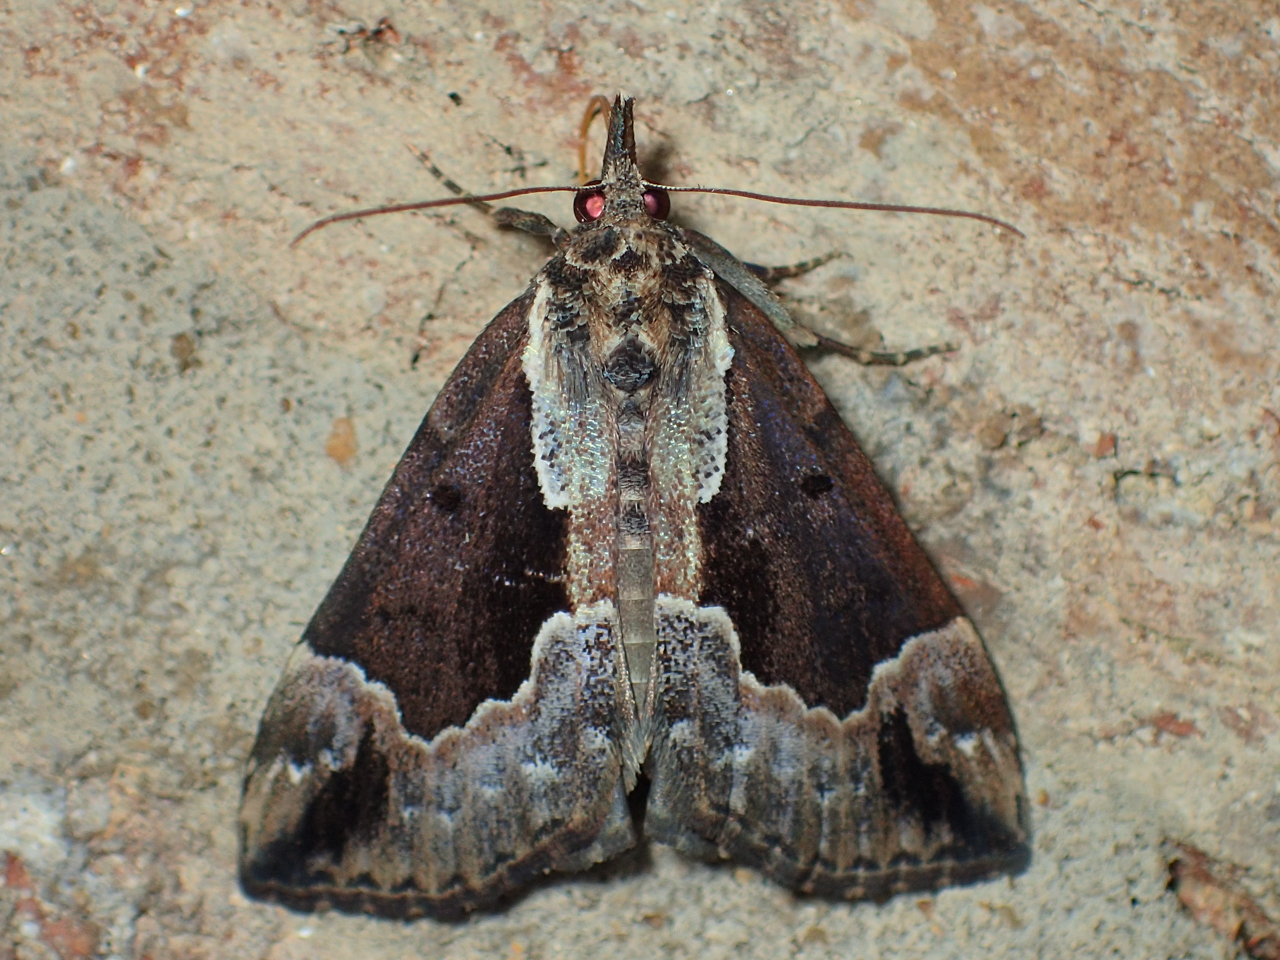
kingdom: Animalia
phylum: Arthropoda
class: Insecta
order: Lepidoptera
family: Erebidae
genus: Hypena
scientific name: Hypena baltimoralis
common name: Baltimore snout
